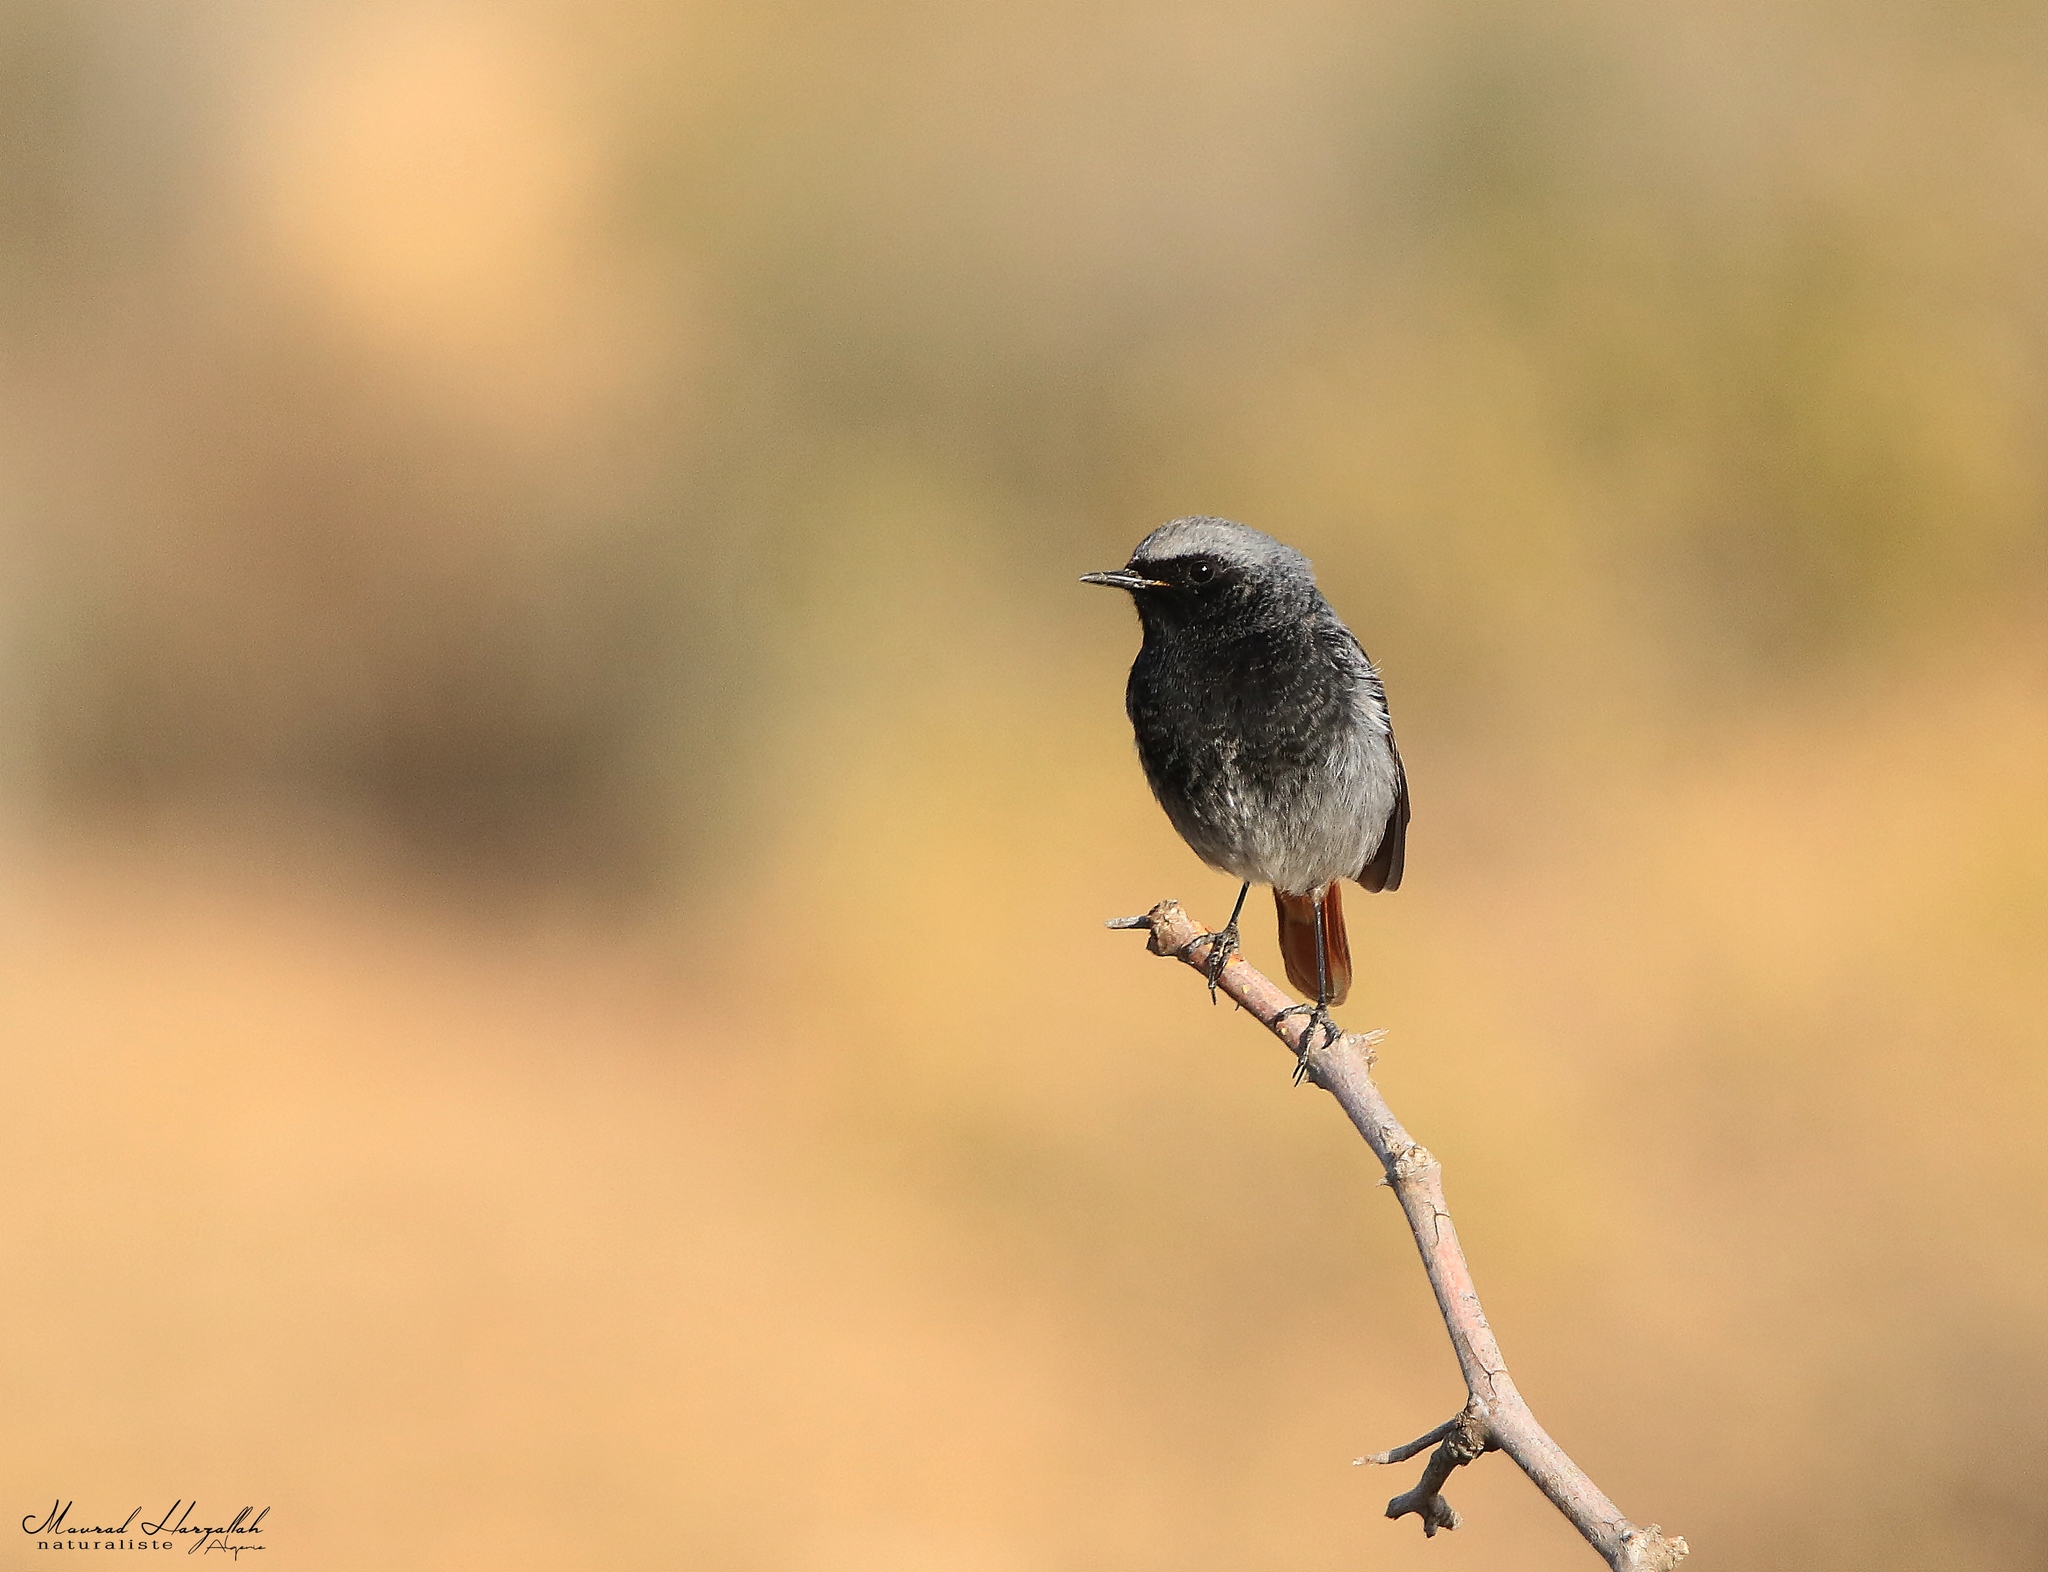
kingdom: Animalia
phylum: Chordata
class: Aves
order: Passeriformes
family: Muscicapidae
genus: Phoenicurus
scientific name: Phoenicurus ochruros
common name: Black redstart
